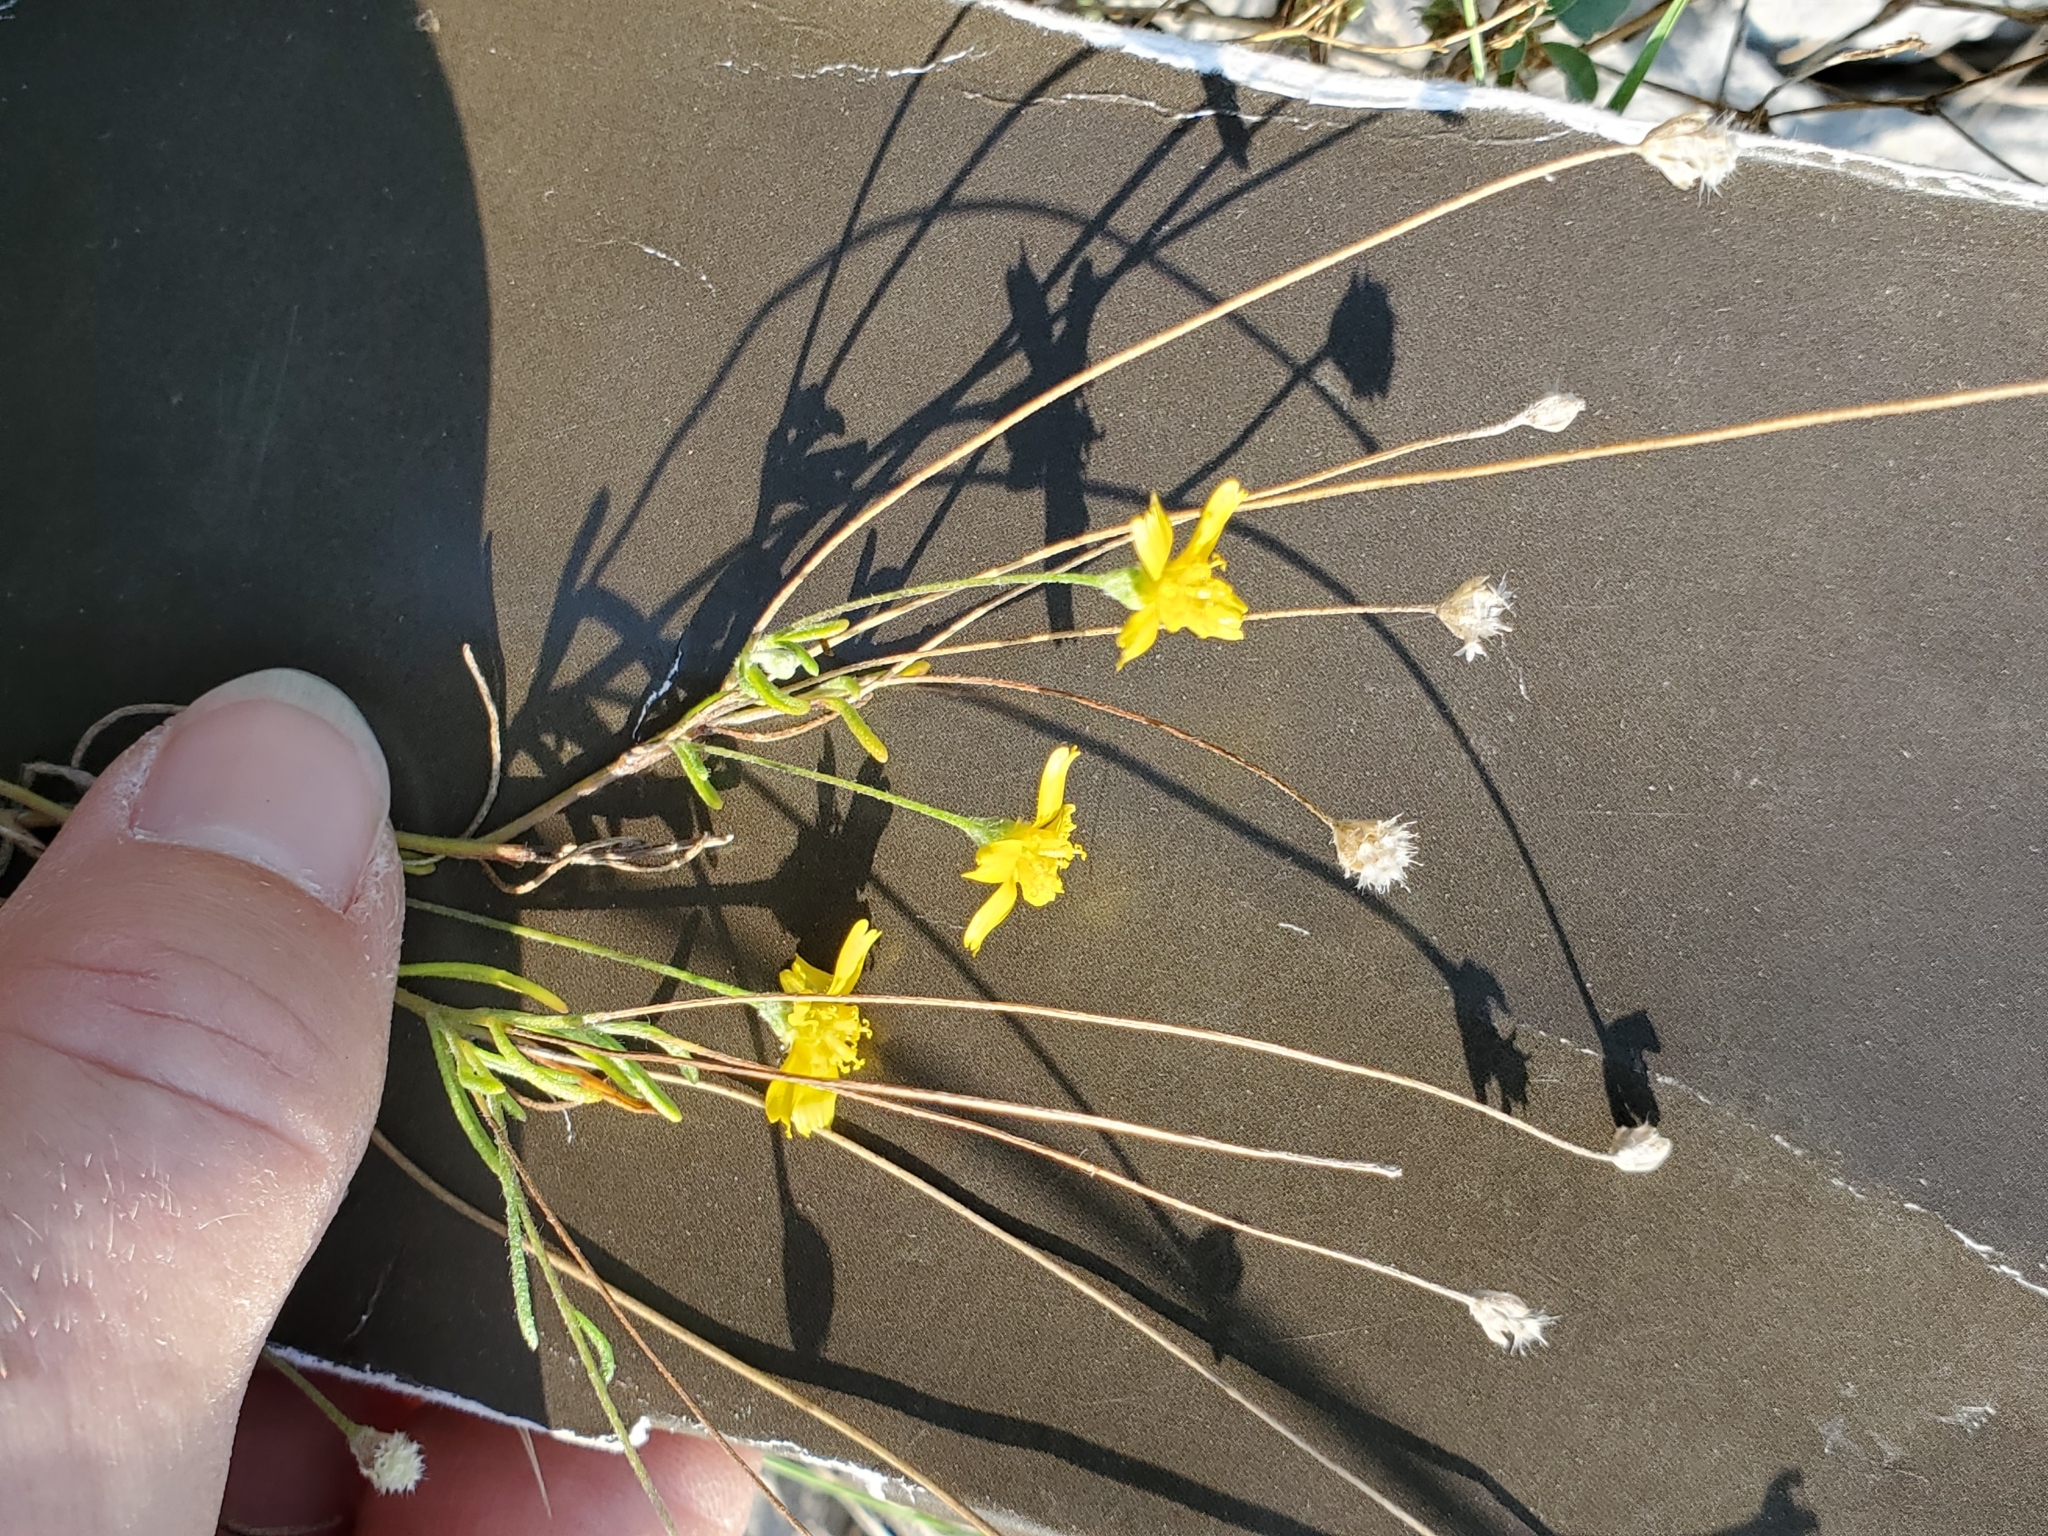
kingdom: Plantae
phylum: Tracheophyta
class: Magnoliopsida
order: Asterales
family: Asteraceae
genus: Tetraneuris
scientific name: Tetraneuris linearifolia
